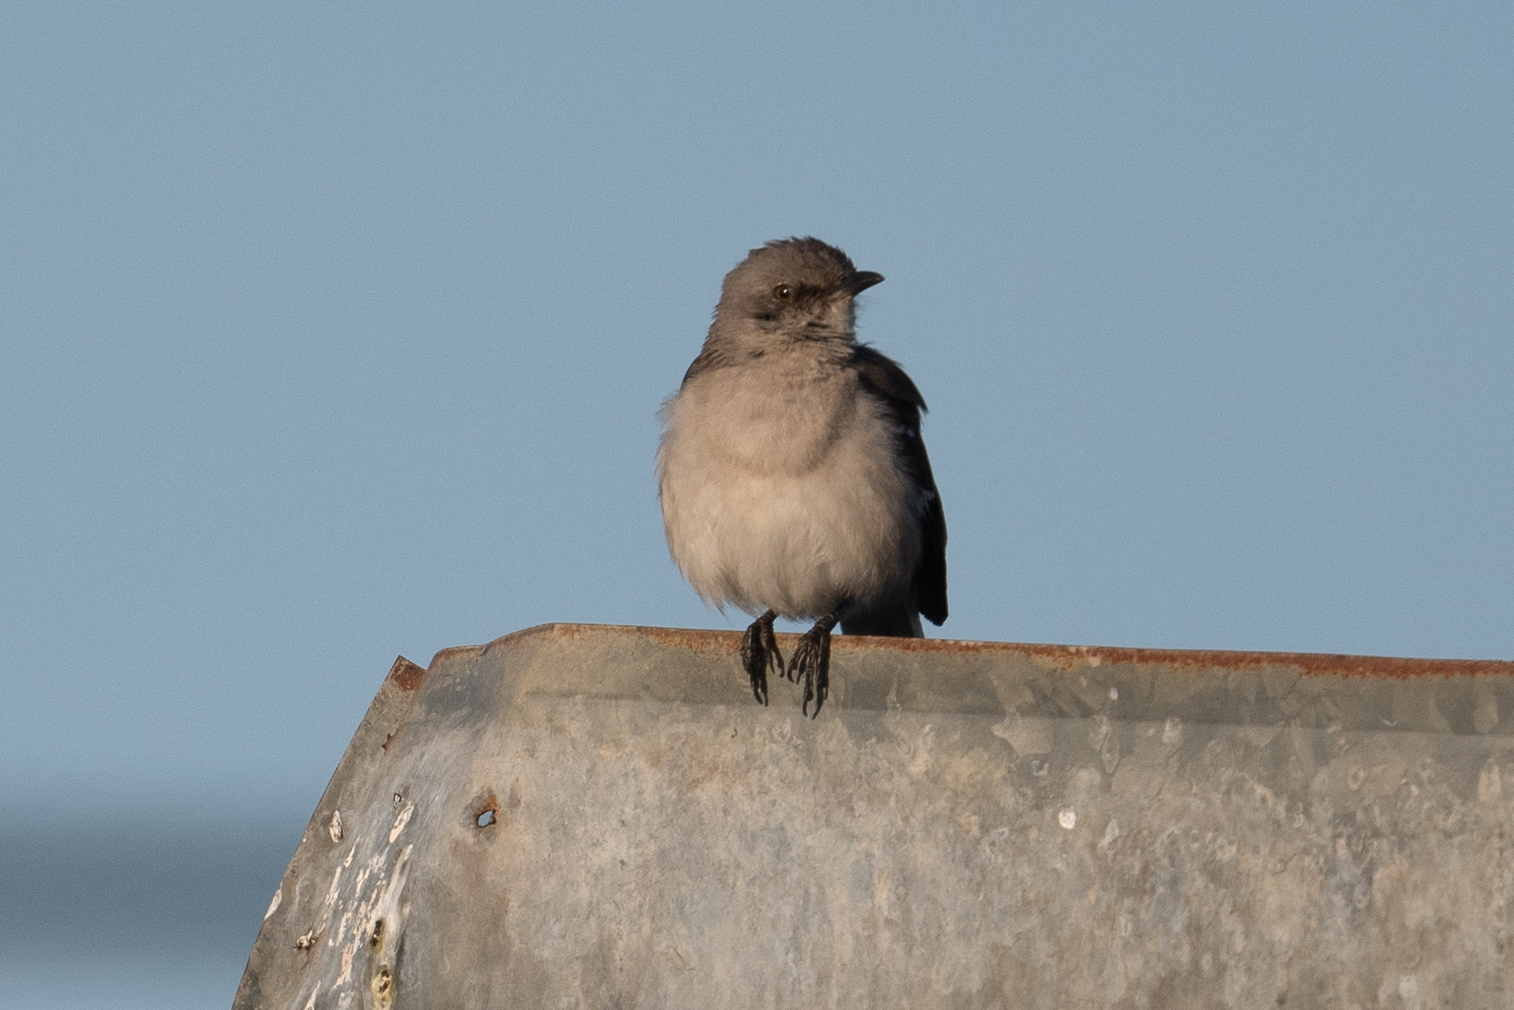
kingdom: Animalia
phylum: Chordata
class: Aves
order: Passeriformes
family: Mimidae
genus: Mimus
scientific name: Mimus polyglottos
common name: Northern mockingbird
